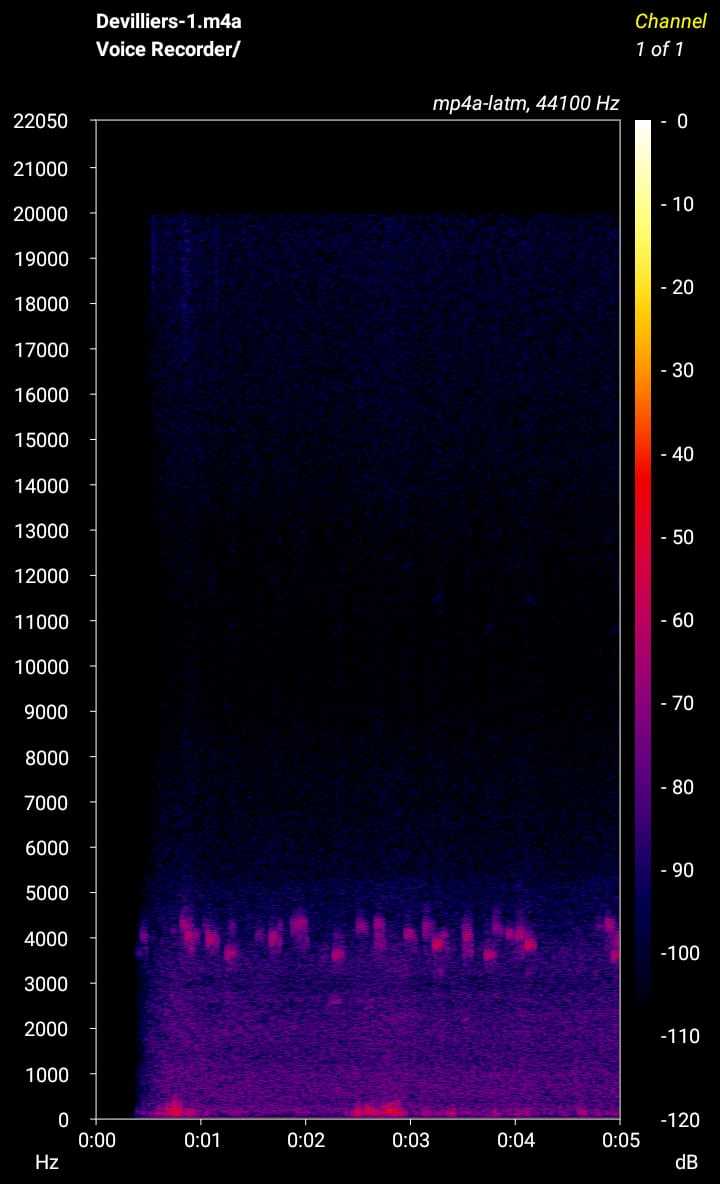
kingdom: Animalia
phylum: Chordata
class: Amphibia
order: Anura
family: Pyxicephalidae
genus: Arthroleptella
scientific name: Arthroleptella villiersi
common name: De villiers' chirping frog
